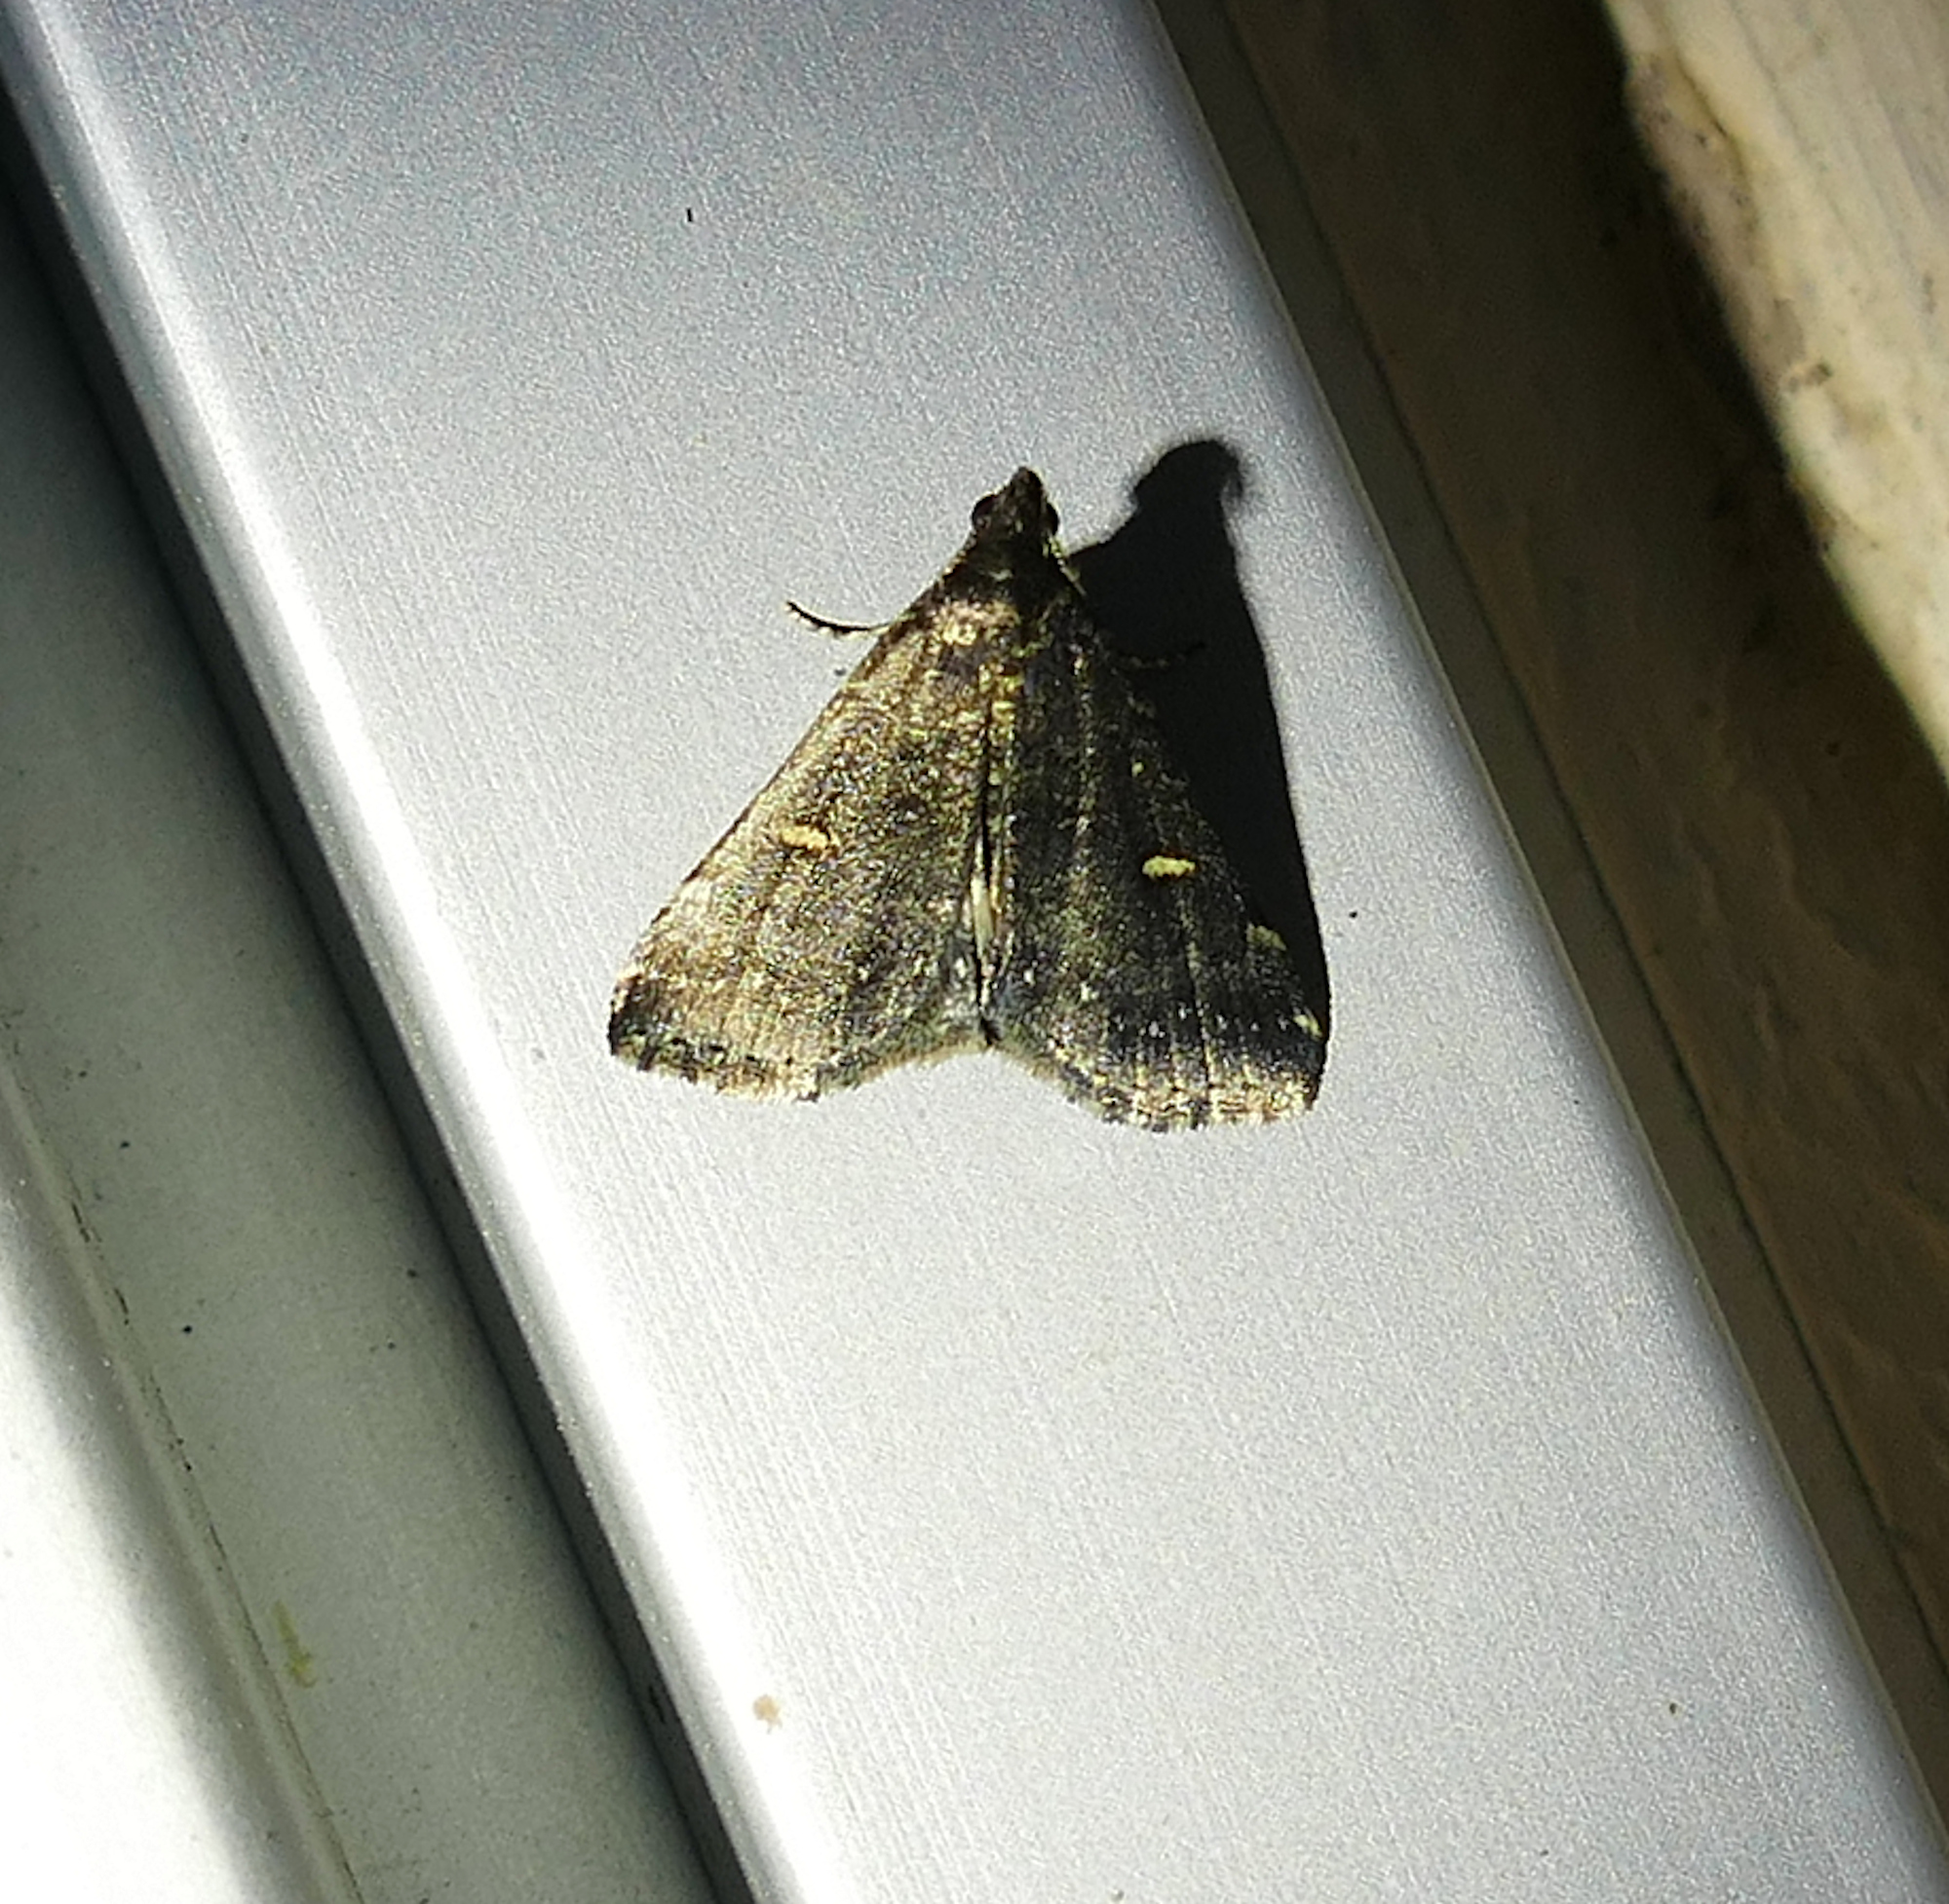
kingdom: Animalia
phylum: Arthropoda
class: Insecta
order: Lepidoptera
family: Erebidae
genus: Tetanolita
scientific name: Tetanolita mynesalis
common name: Smoky tetanolita moth
